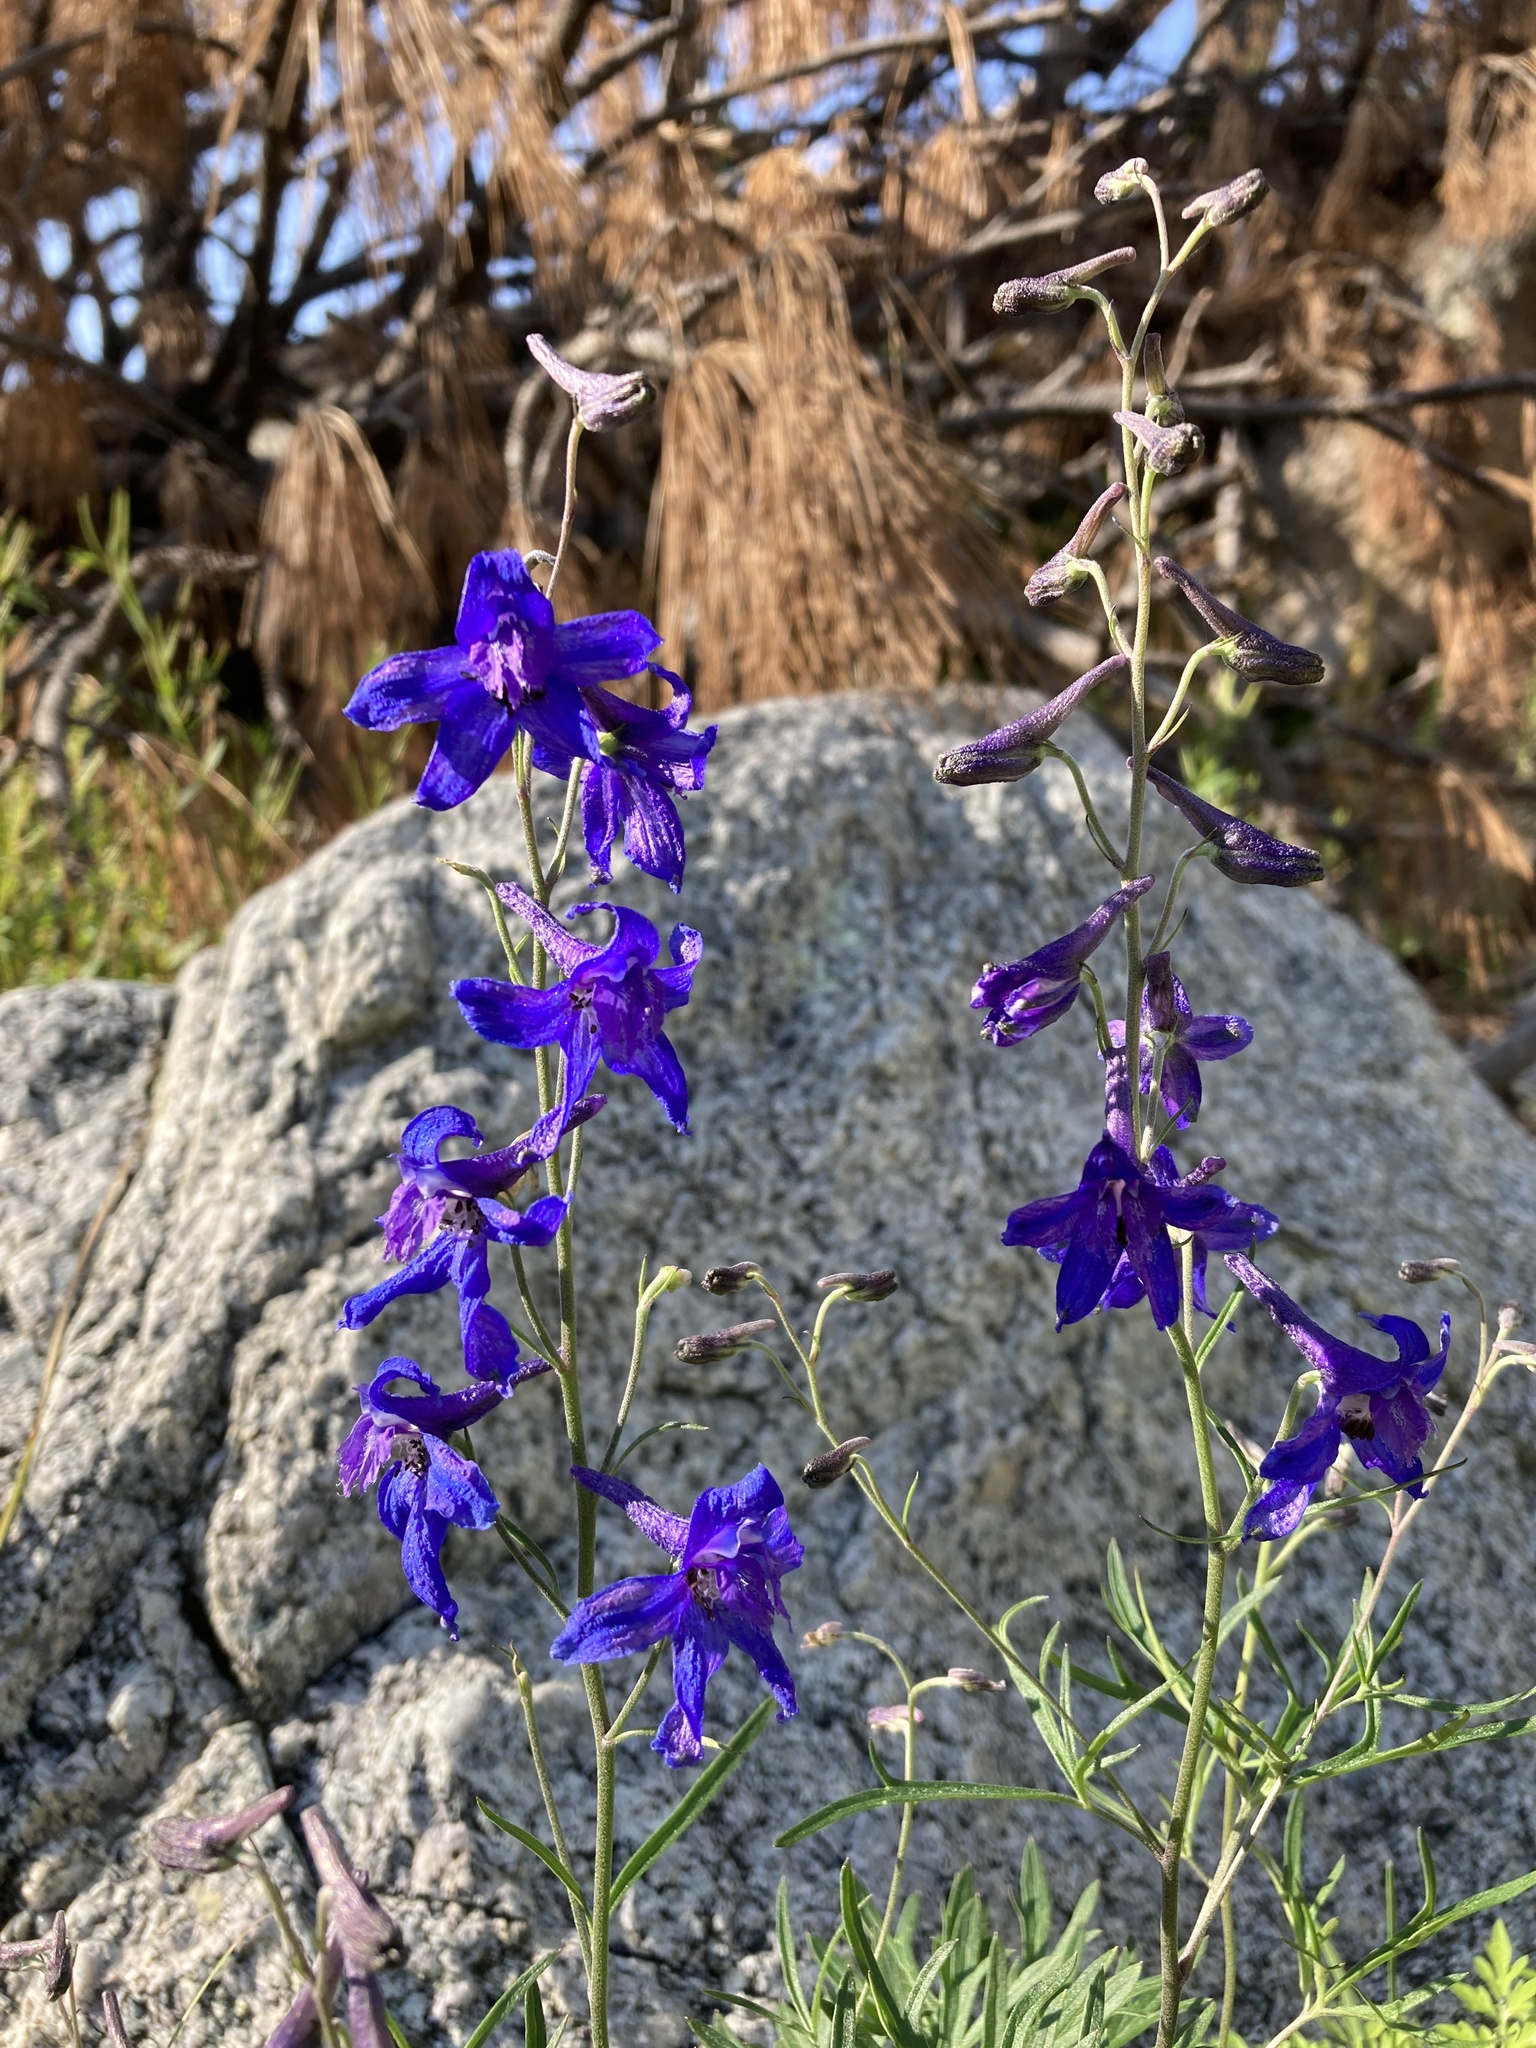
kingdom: Plantae
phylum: Tracheophyta
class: Magnoliopsida
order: Ranunculales
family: Ranunculaceae
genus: Delphinium
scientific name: Delphinium scopulorum
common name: Rocky mountain larkspur
